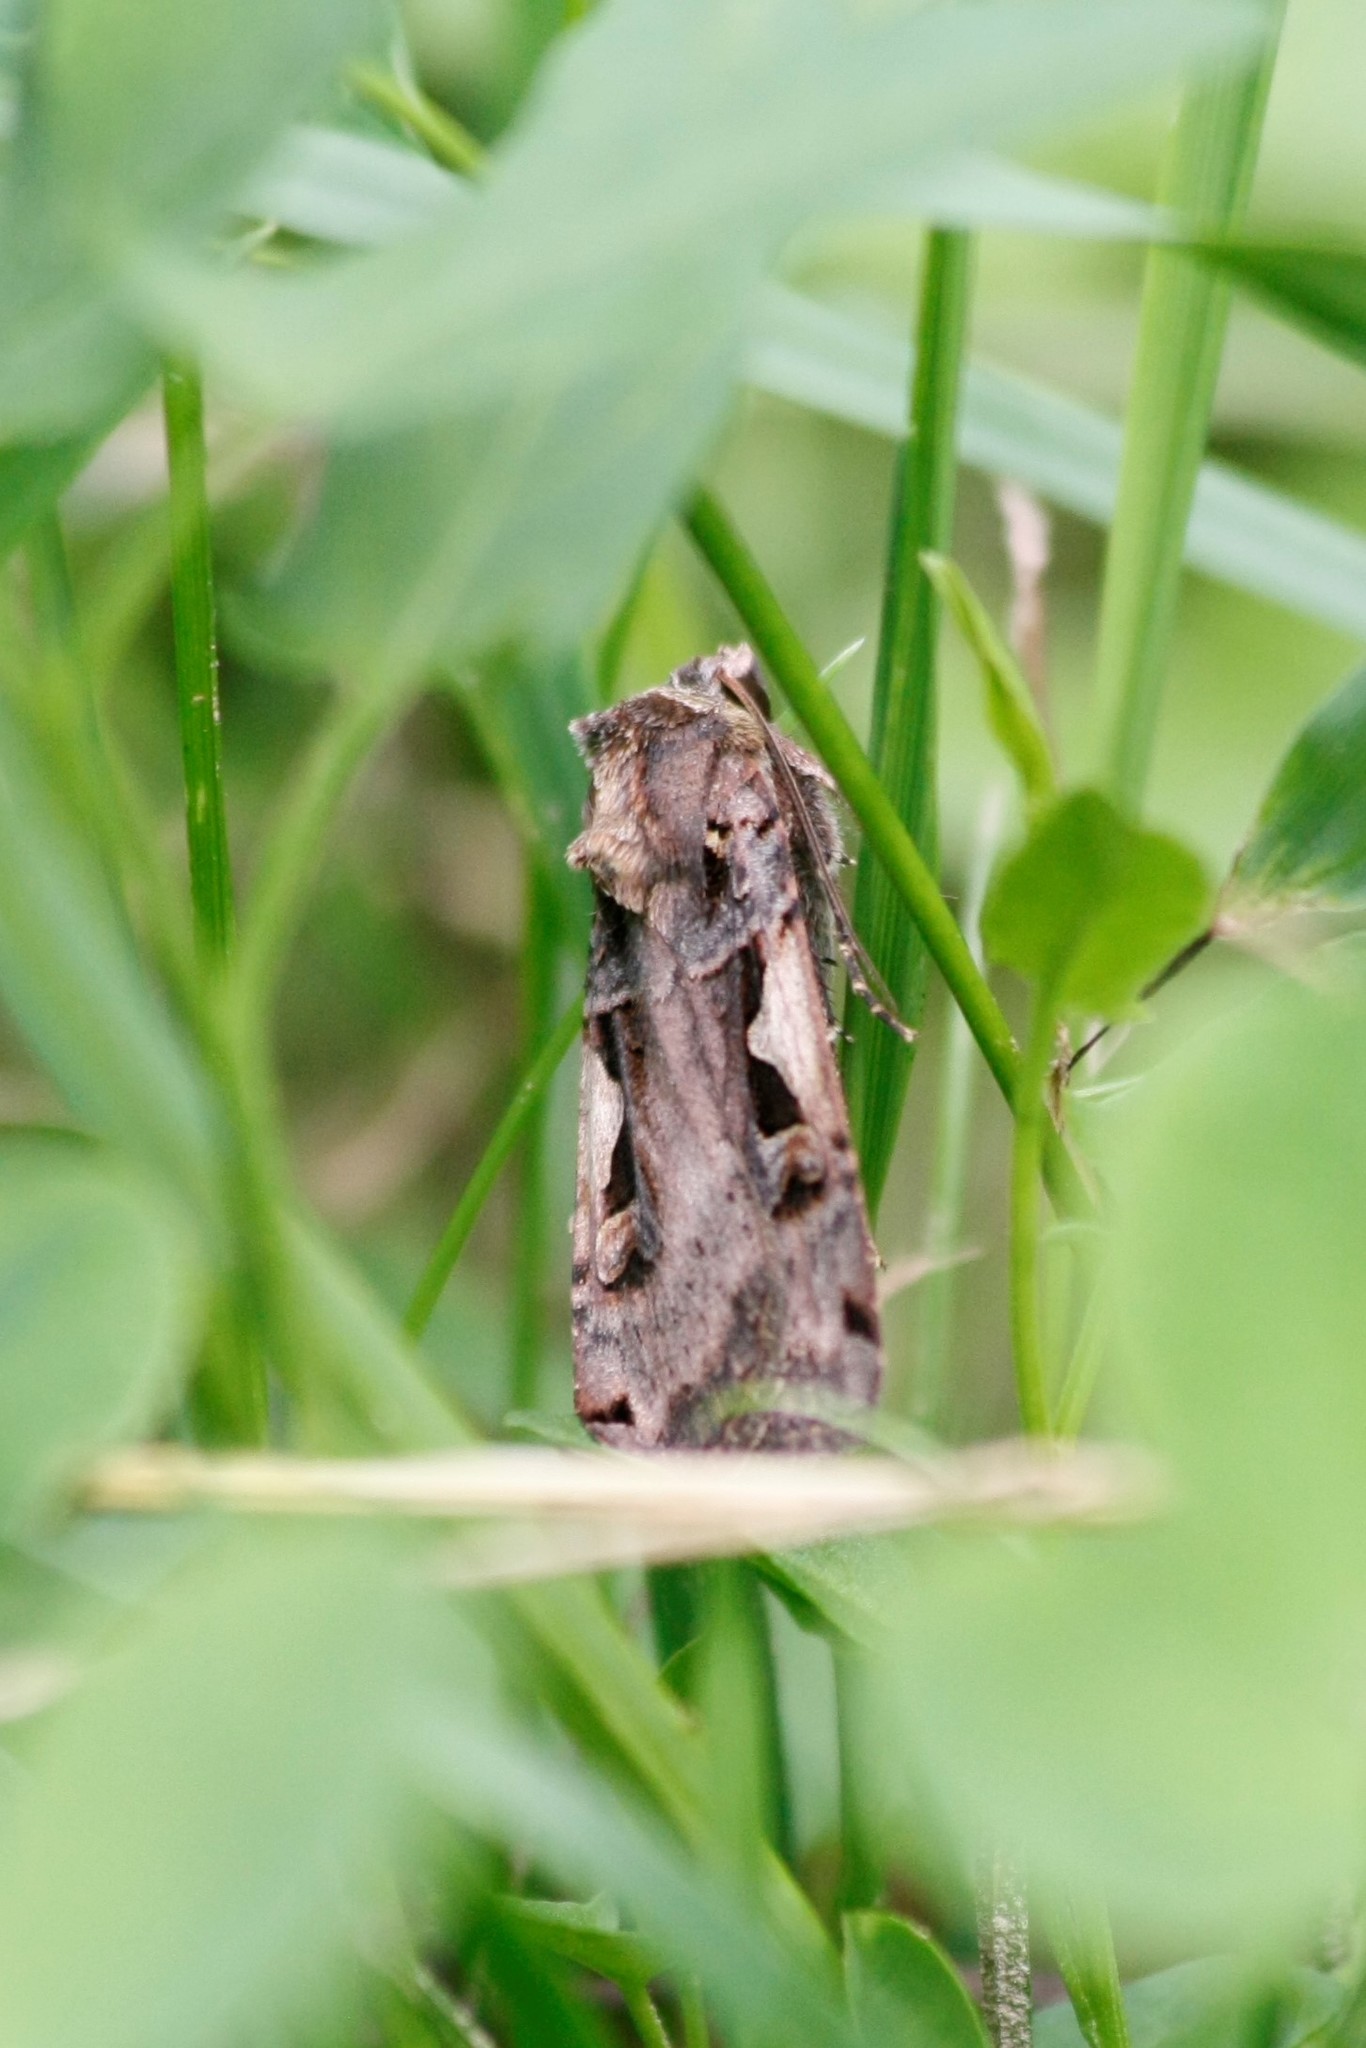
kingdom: Animalia
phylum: Arthropoda
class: Insecta
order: Lepidoptera
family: Noctuidae
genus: Xestia
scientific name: Xestia c-nigrum
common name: Setaceous hebrew character
